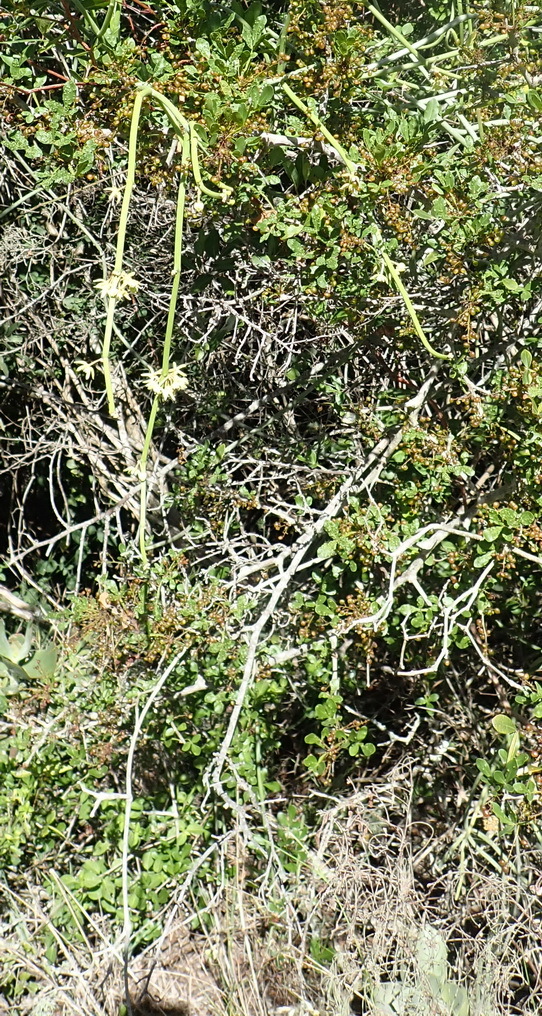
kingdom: Plantae
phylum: Tracheophyta
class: Magnoliopsida
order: Gentianales
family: Apocynaceae
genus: Cynanchum
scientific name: Cynanchum viminale
